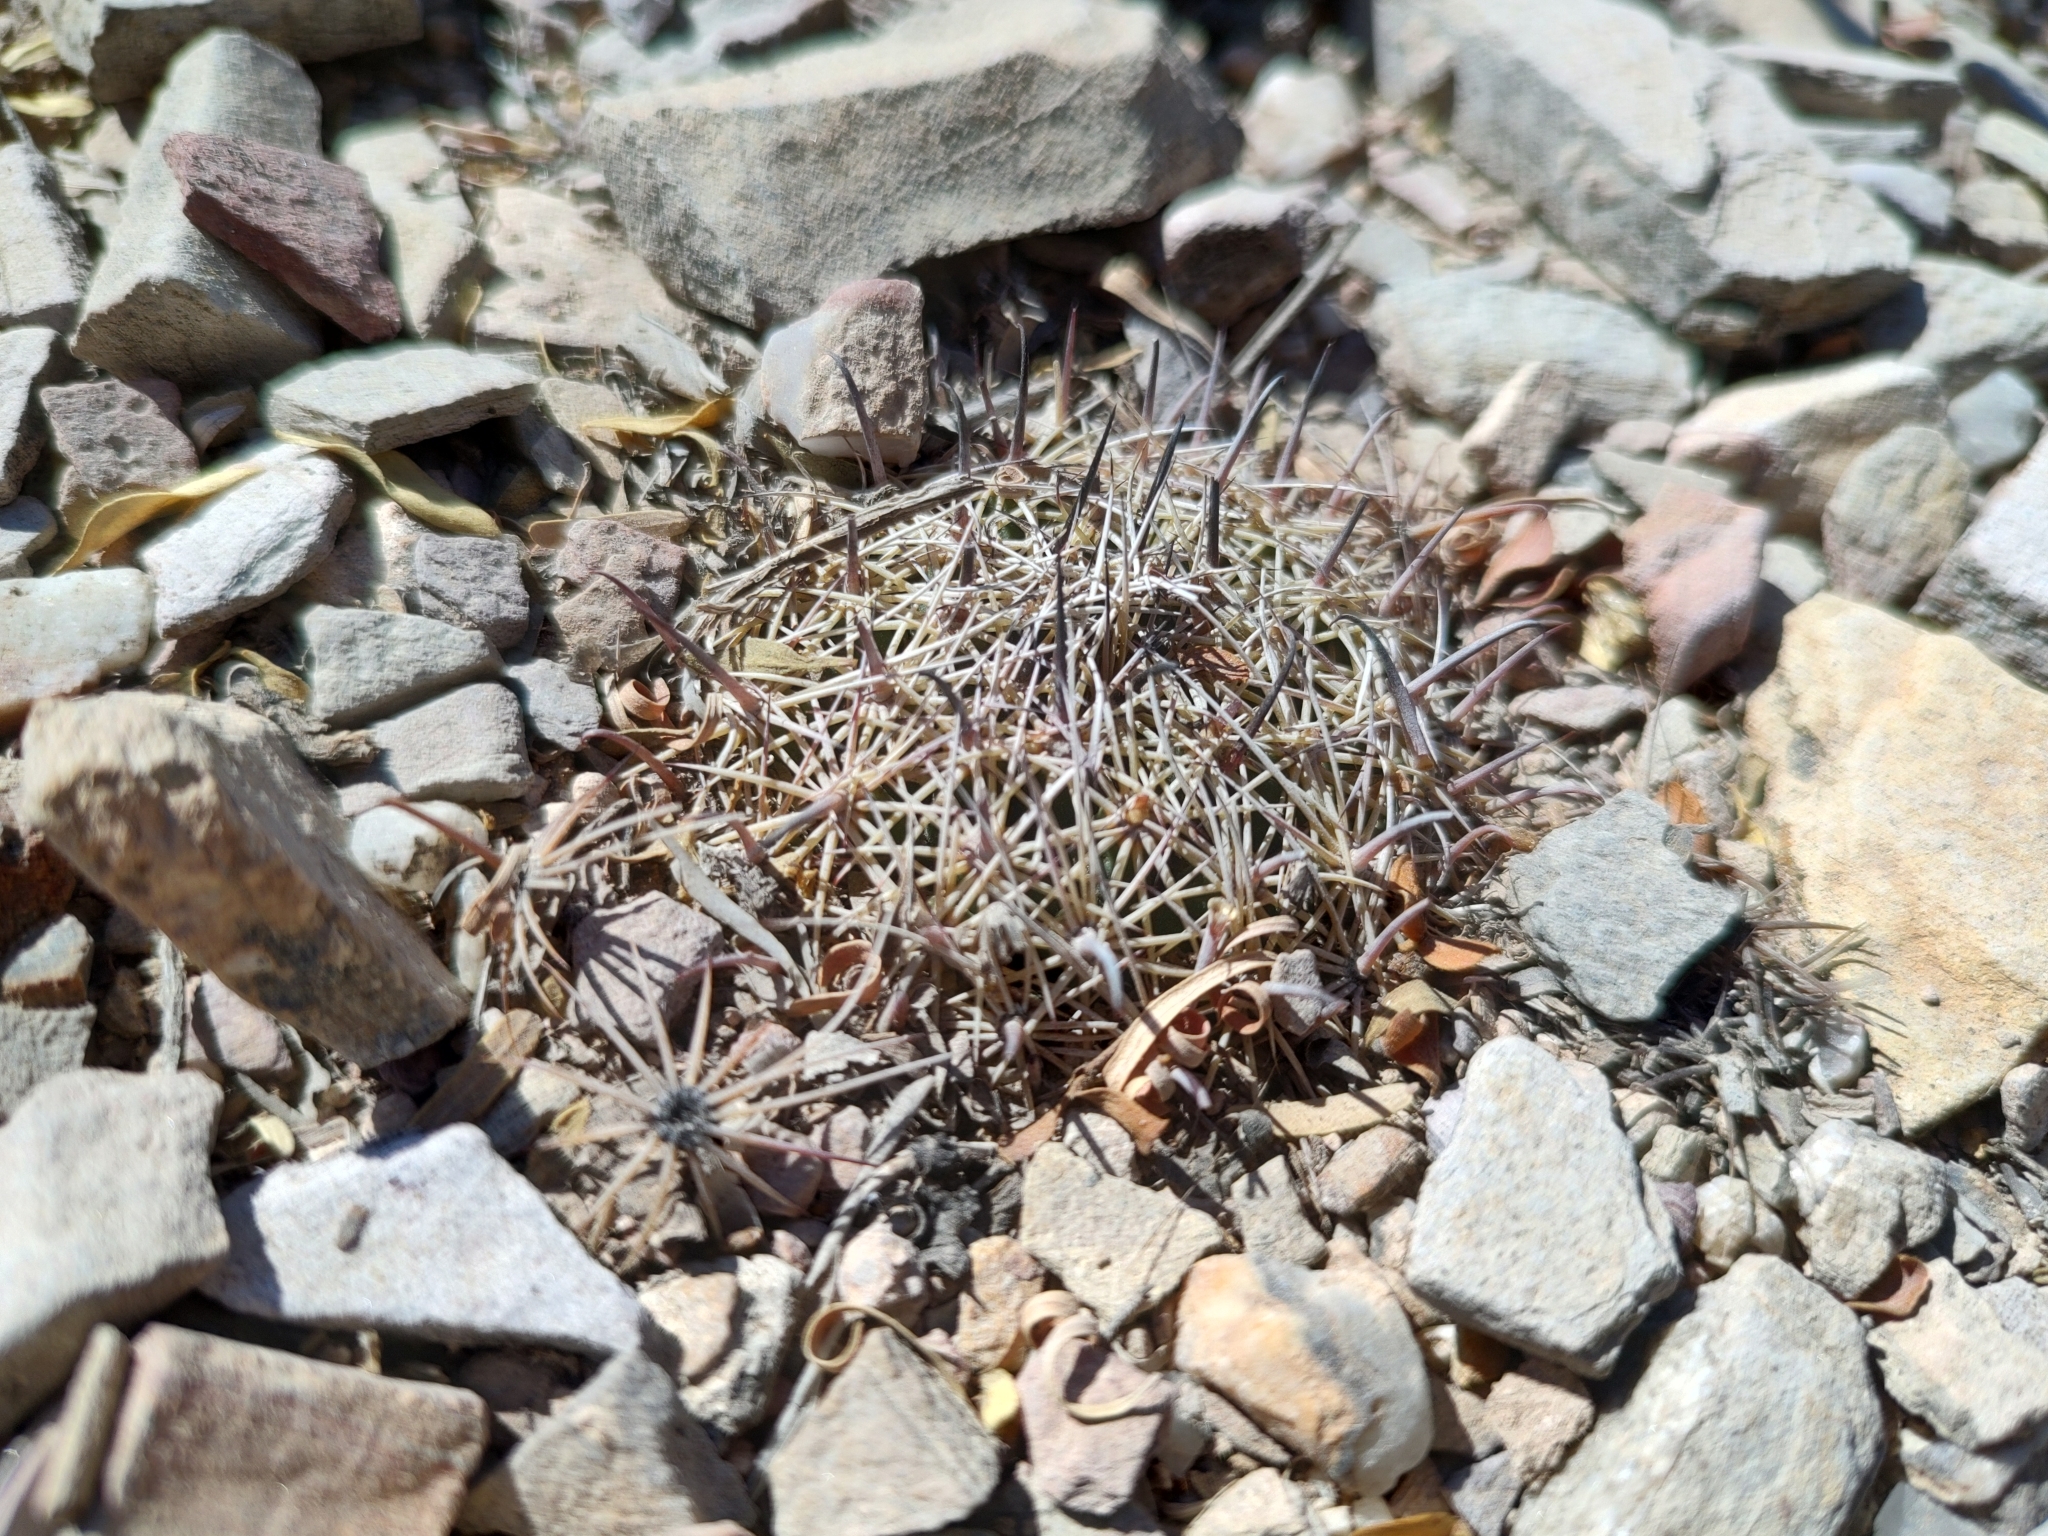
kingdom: Plantae
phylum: Tracheophyta
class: Magnoliopsida
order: Caryophyllales
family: Cactaceae
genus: Coryphantha
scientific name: Coryphantha delicata
